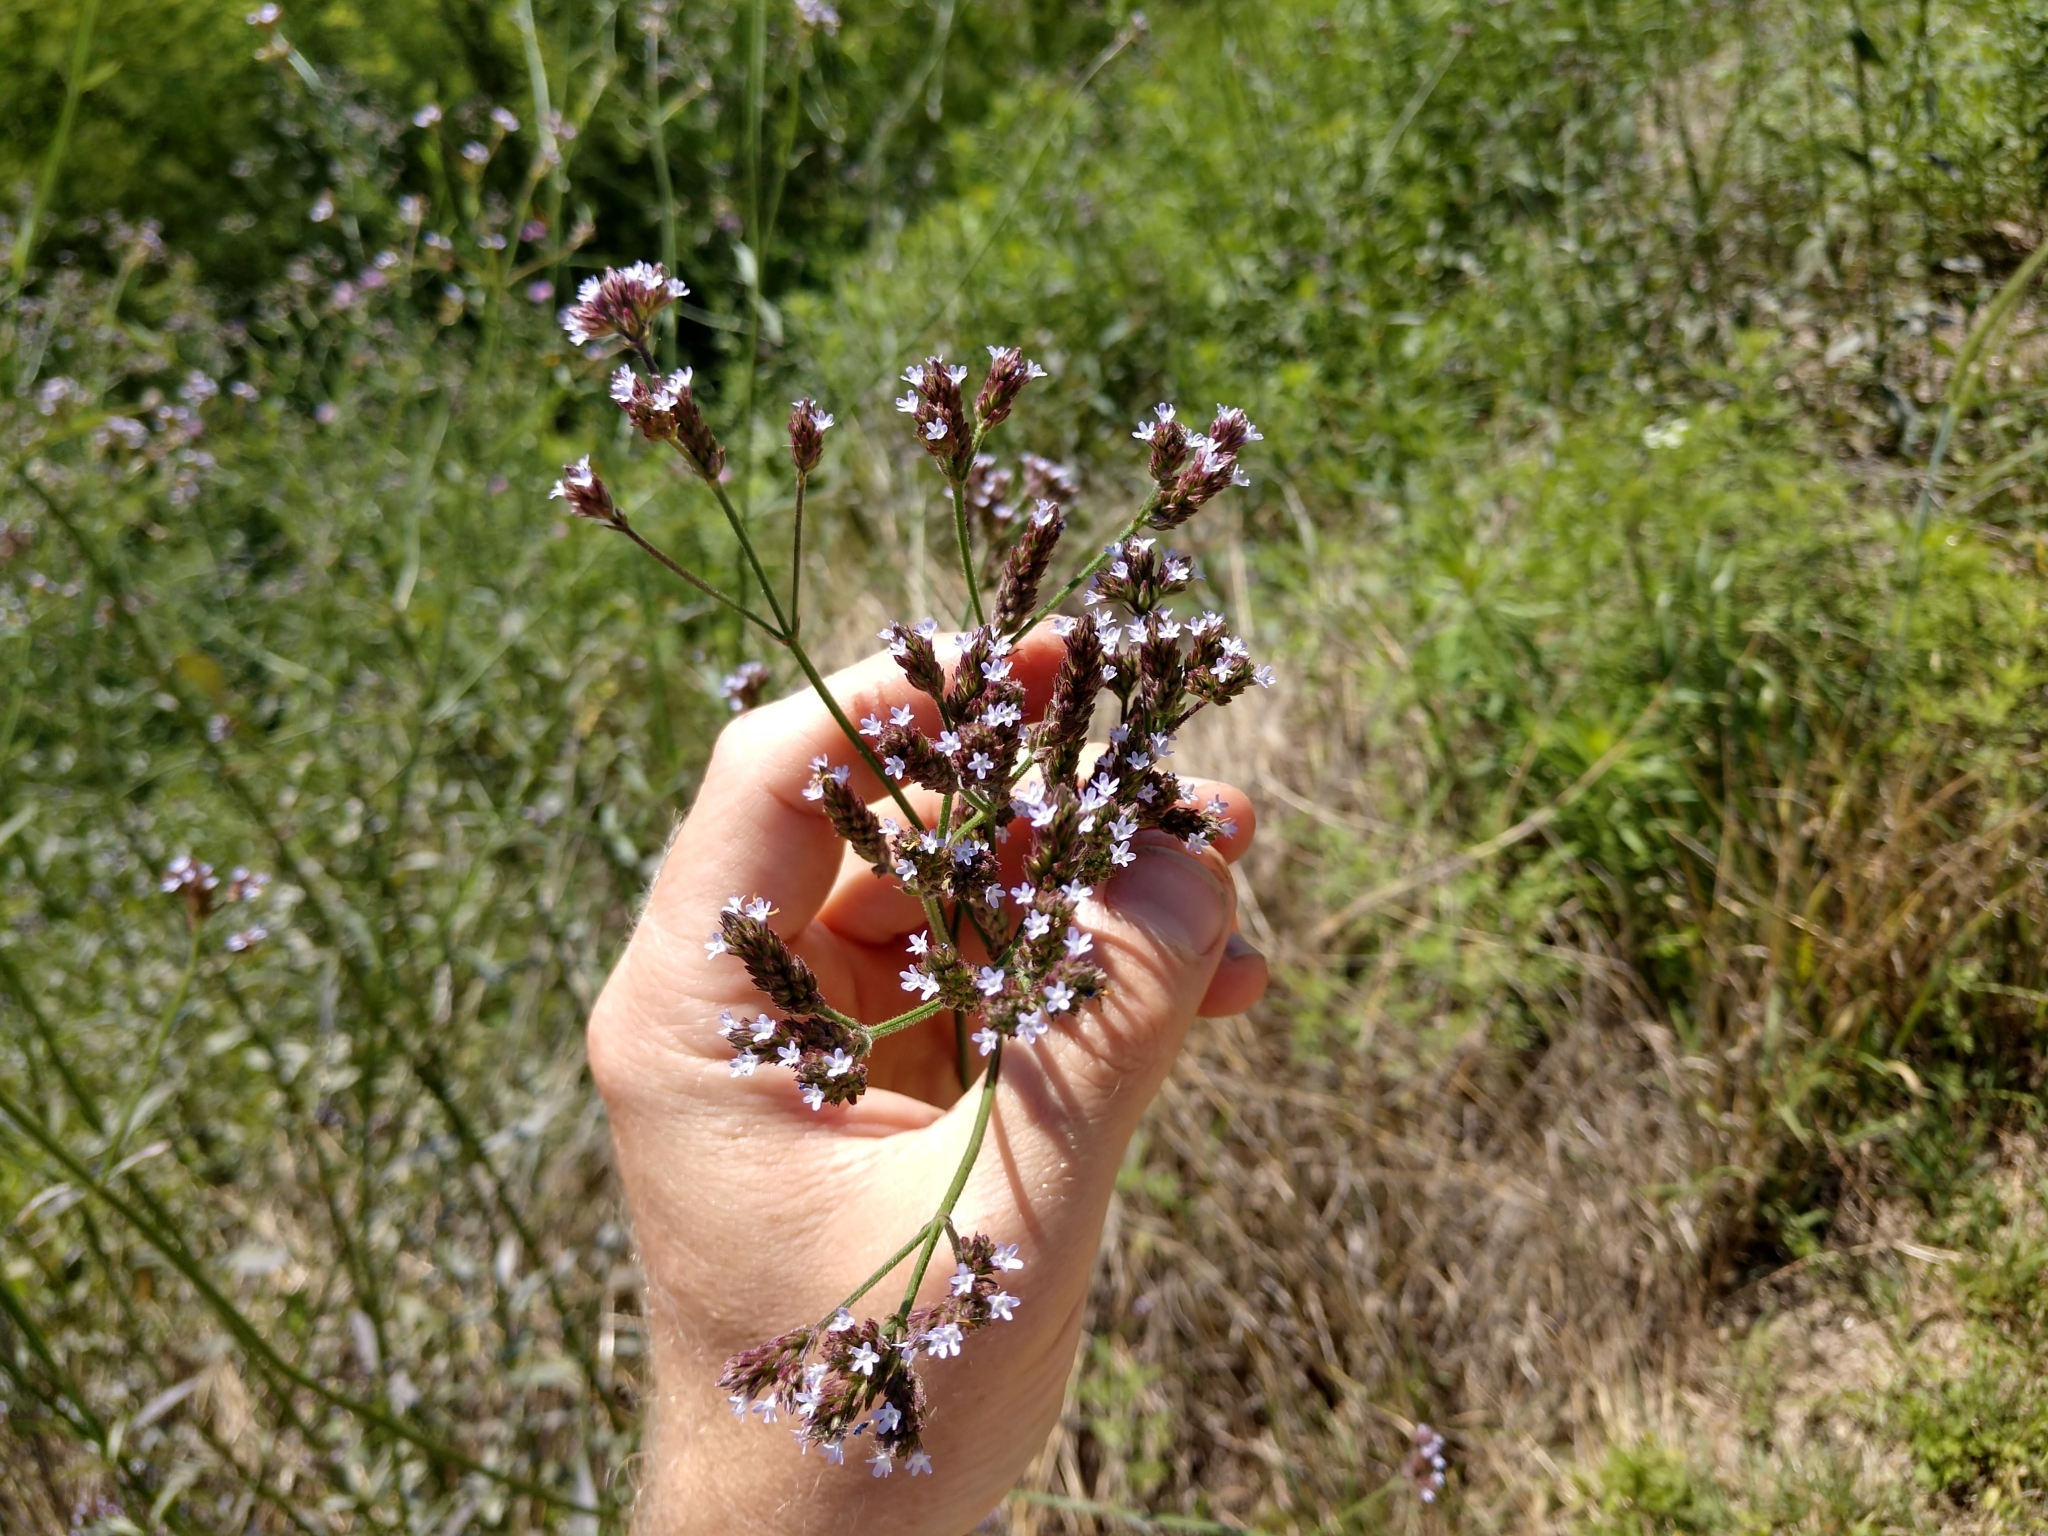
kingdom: Plantae
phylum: Tracheophyta
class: Magnoliopsida
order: Lamiales
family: Verbenaceae
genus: Verbena
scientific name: Verbena brasiliensis
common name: Brazilian vervain
